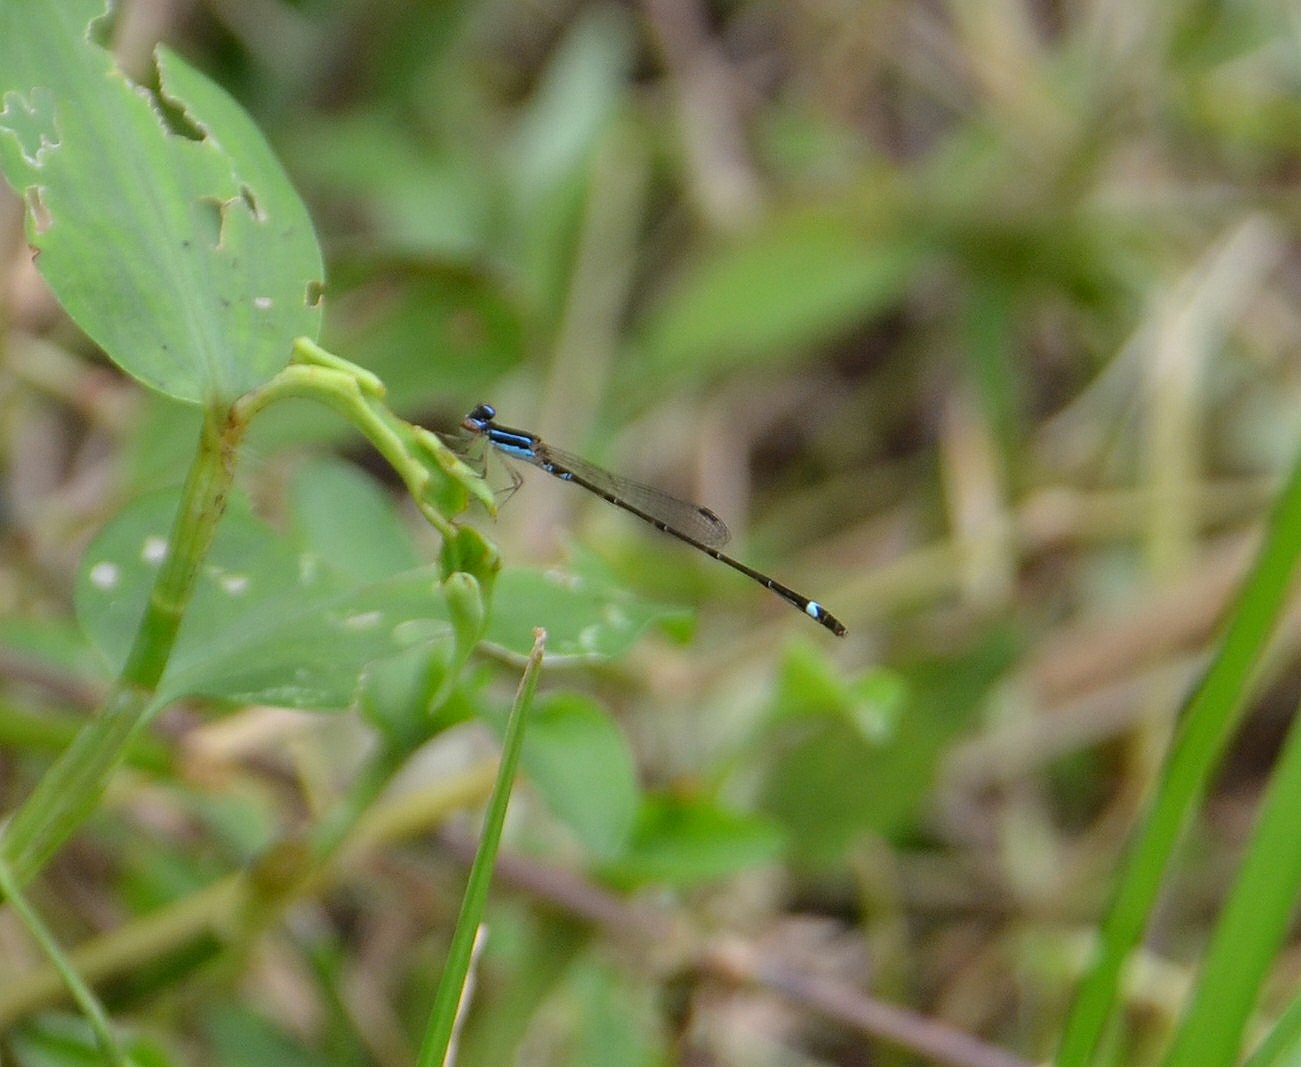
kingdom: Animalia
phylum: Arthropoda
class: Insecta
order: Odonata
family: Coenagrionidae
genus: Mortonagrion
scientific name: Mortonagrion varralli
